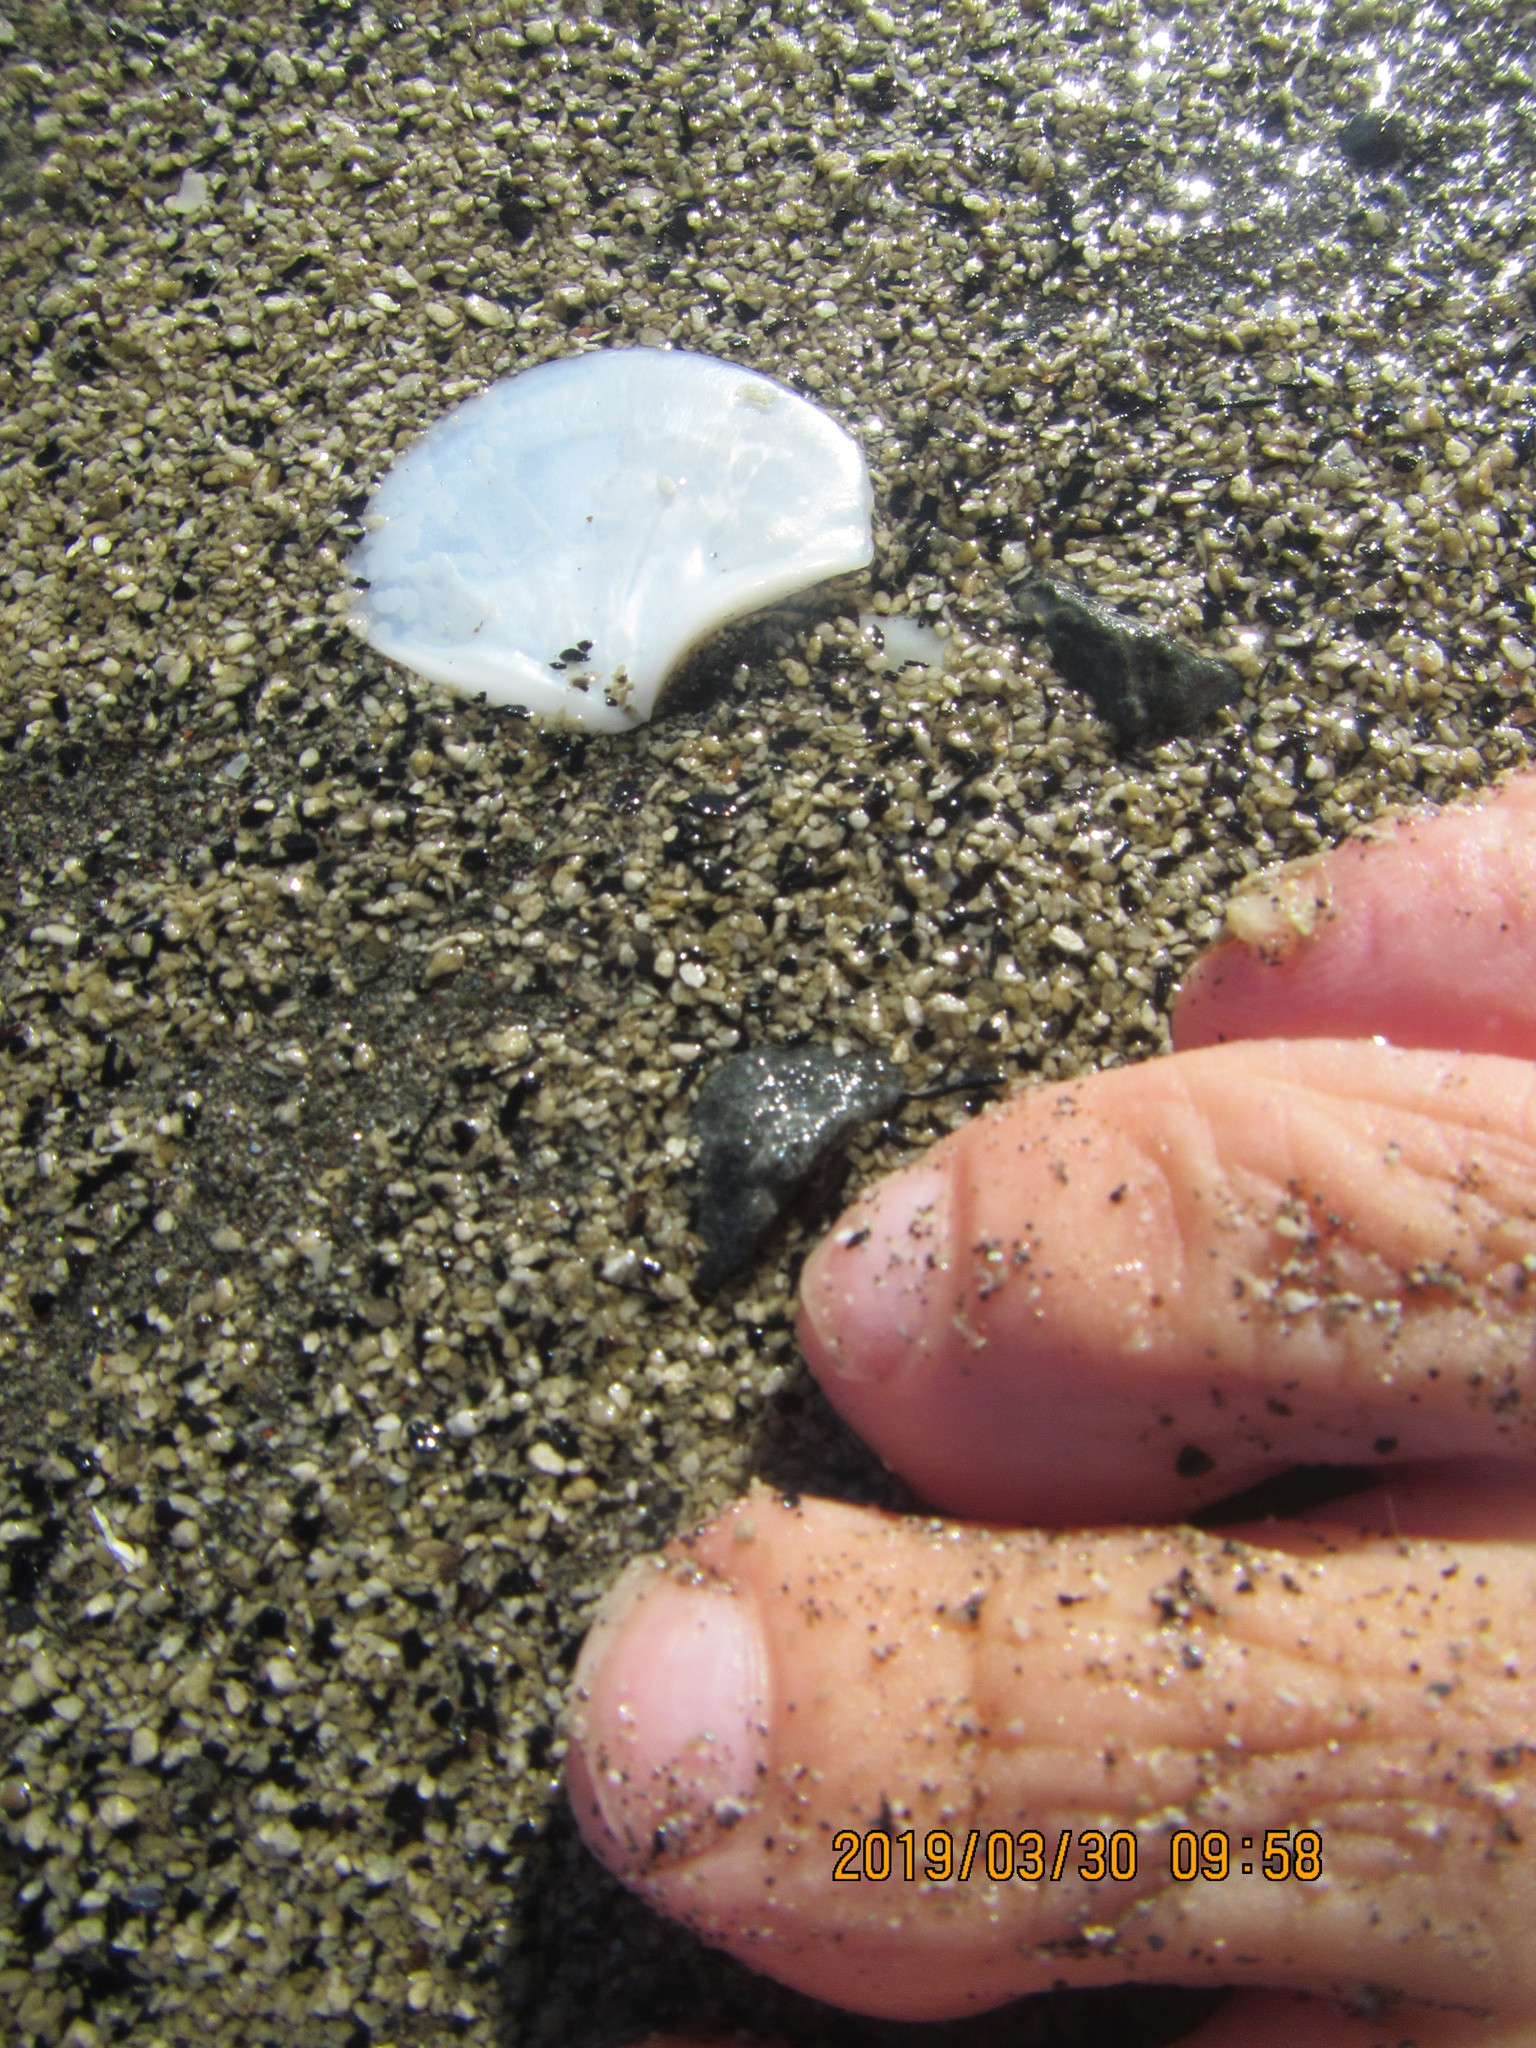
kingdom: Animalia
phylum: Mollusca
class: Bivalvia
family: Myochamidae
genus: Myadora
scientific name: Myadora striata
